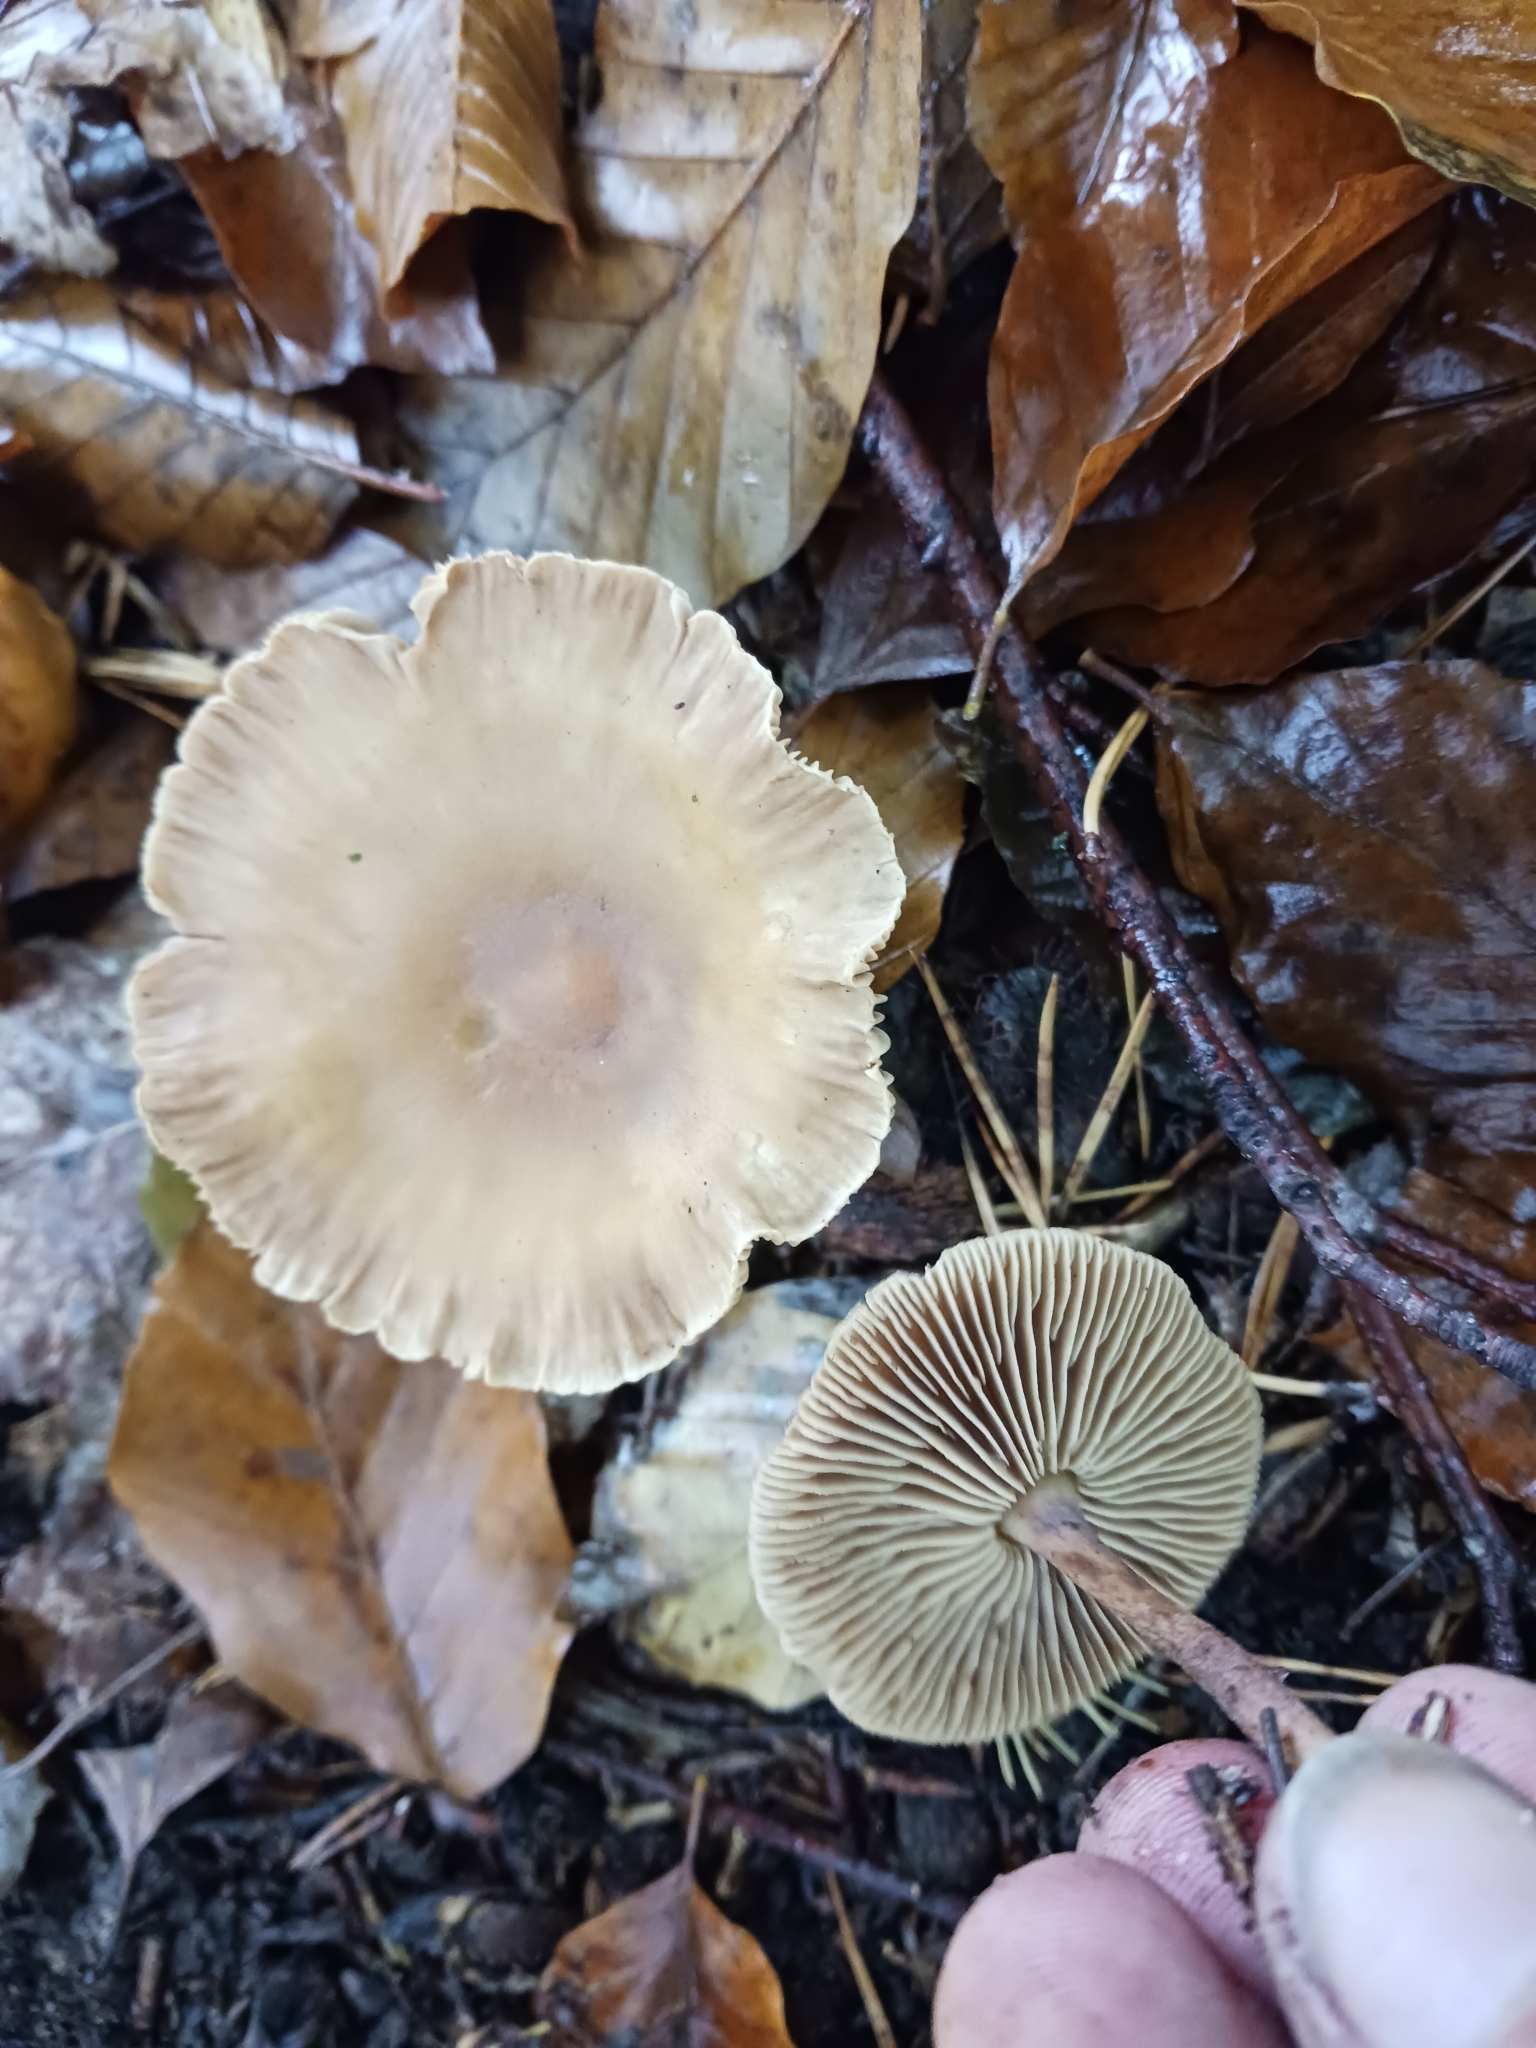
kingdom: Fungi
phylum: Basidiomycota
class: Agaricomycetes
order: Agaricales
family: Omphalotaceae
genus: Collybiopsis
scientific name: Collybiopsis peronata
